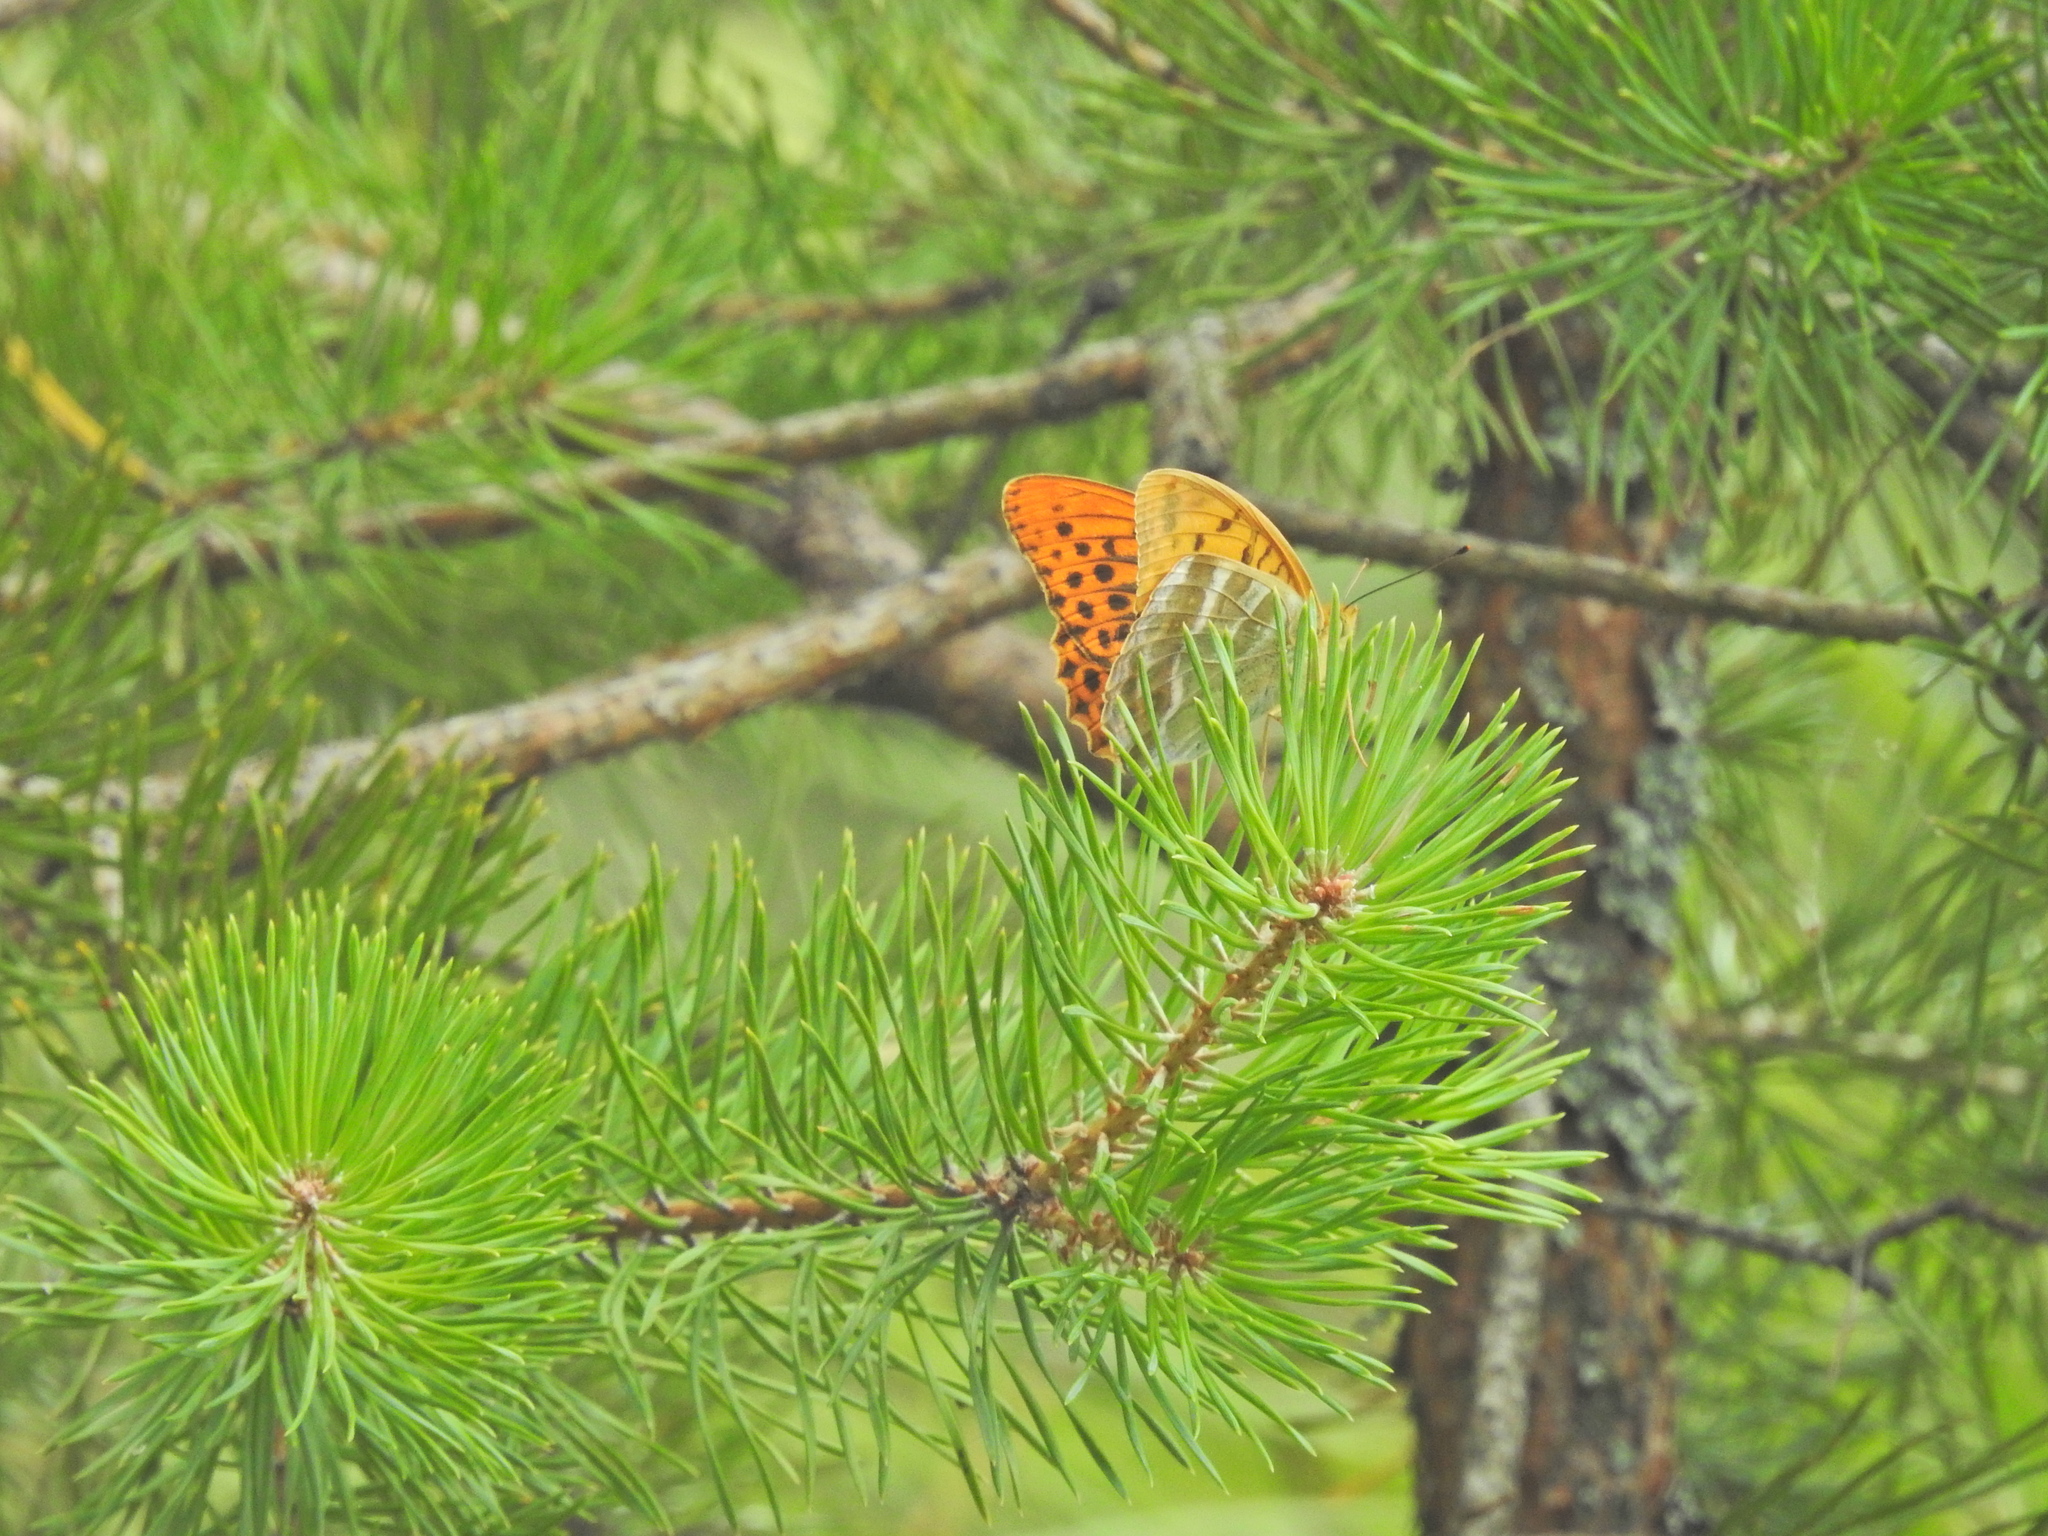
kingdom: Animalia
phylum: Arthropoda
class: Insecta
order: Lepidoptera
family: Nymphalidae
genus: Argynnis
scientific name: Argynnis paphia
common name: Silver-washed fritillary
